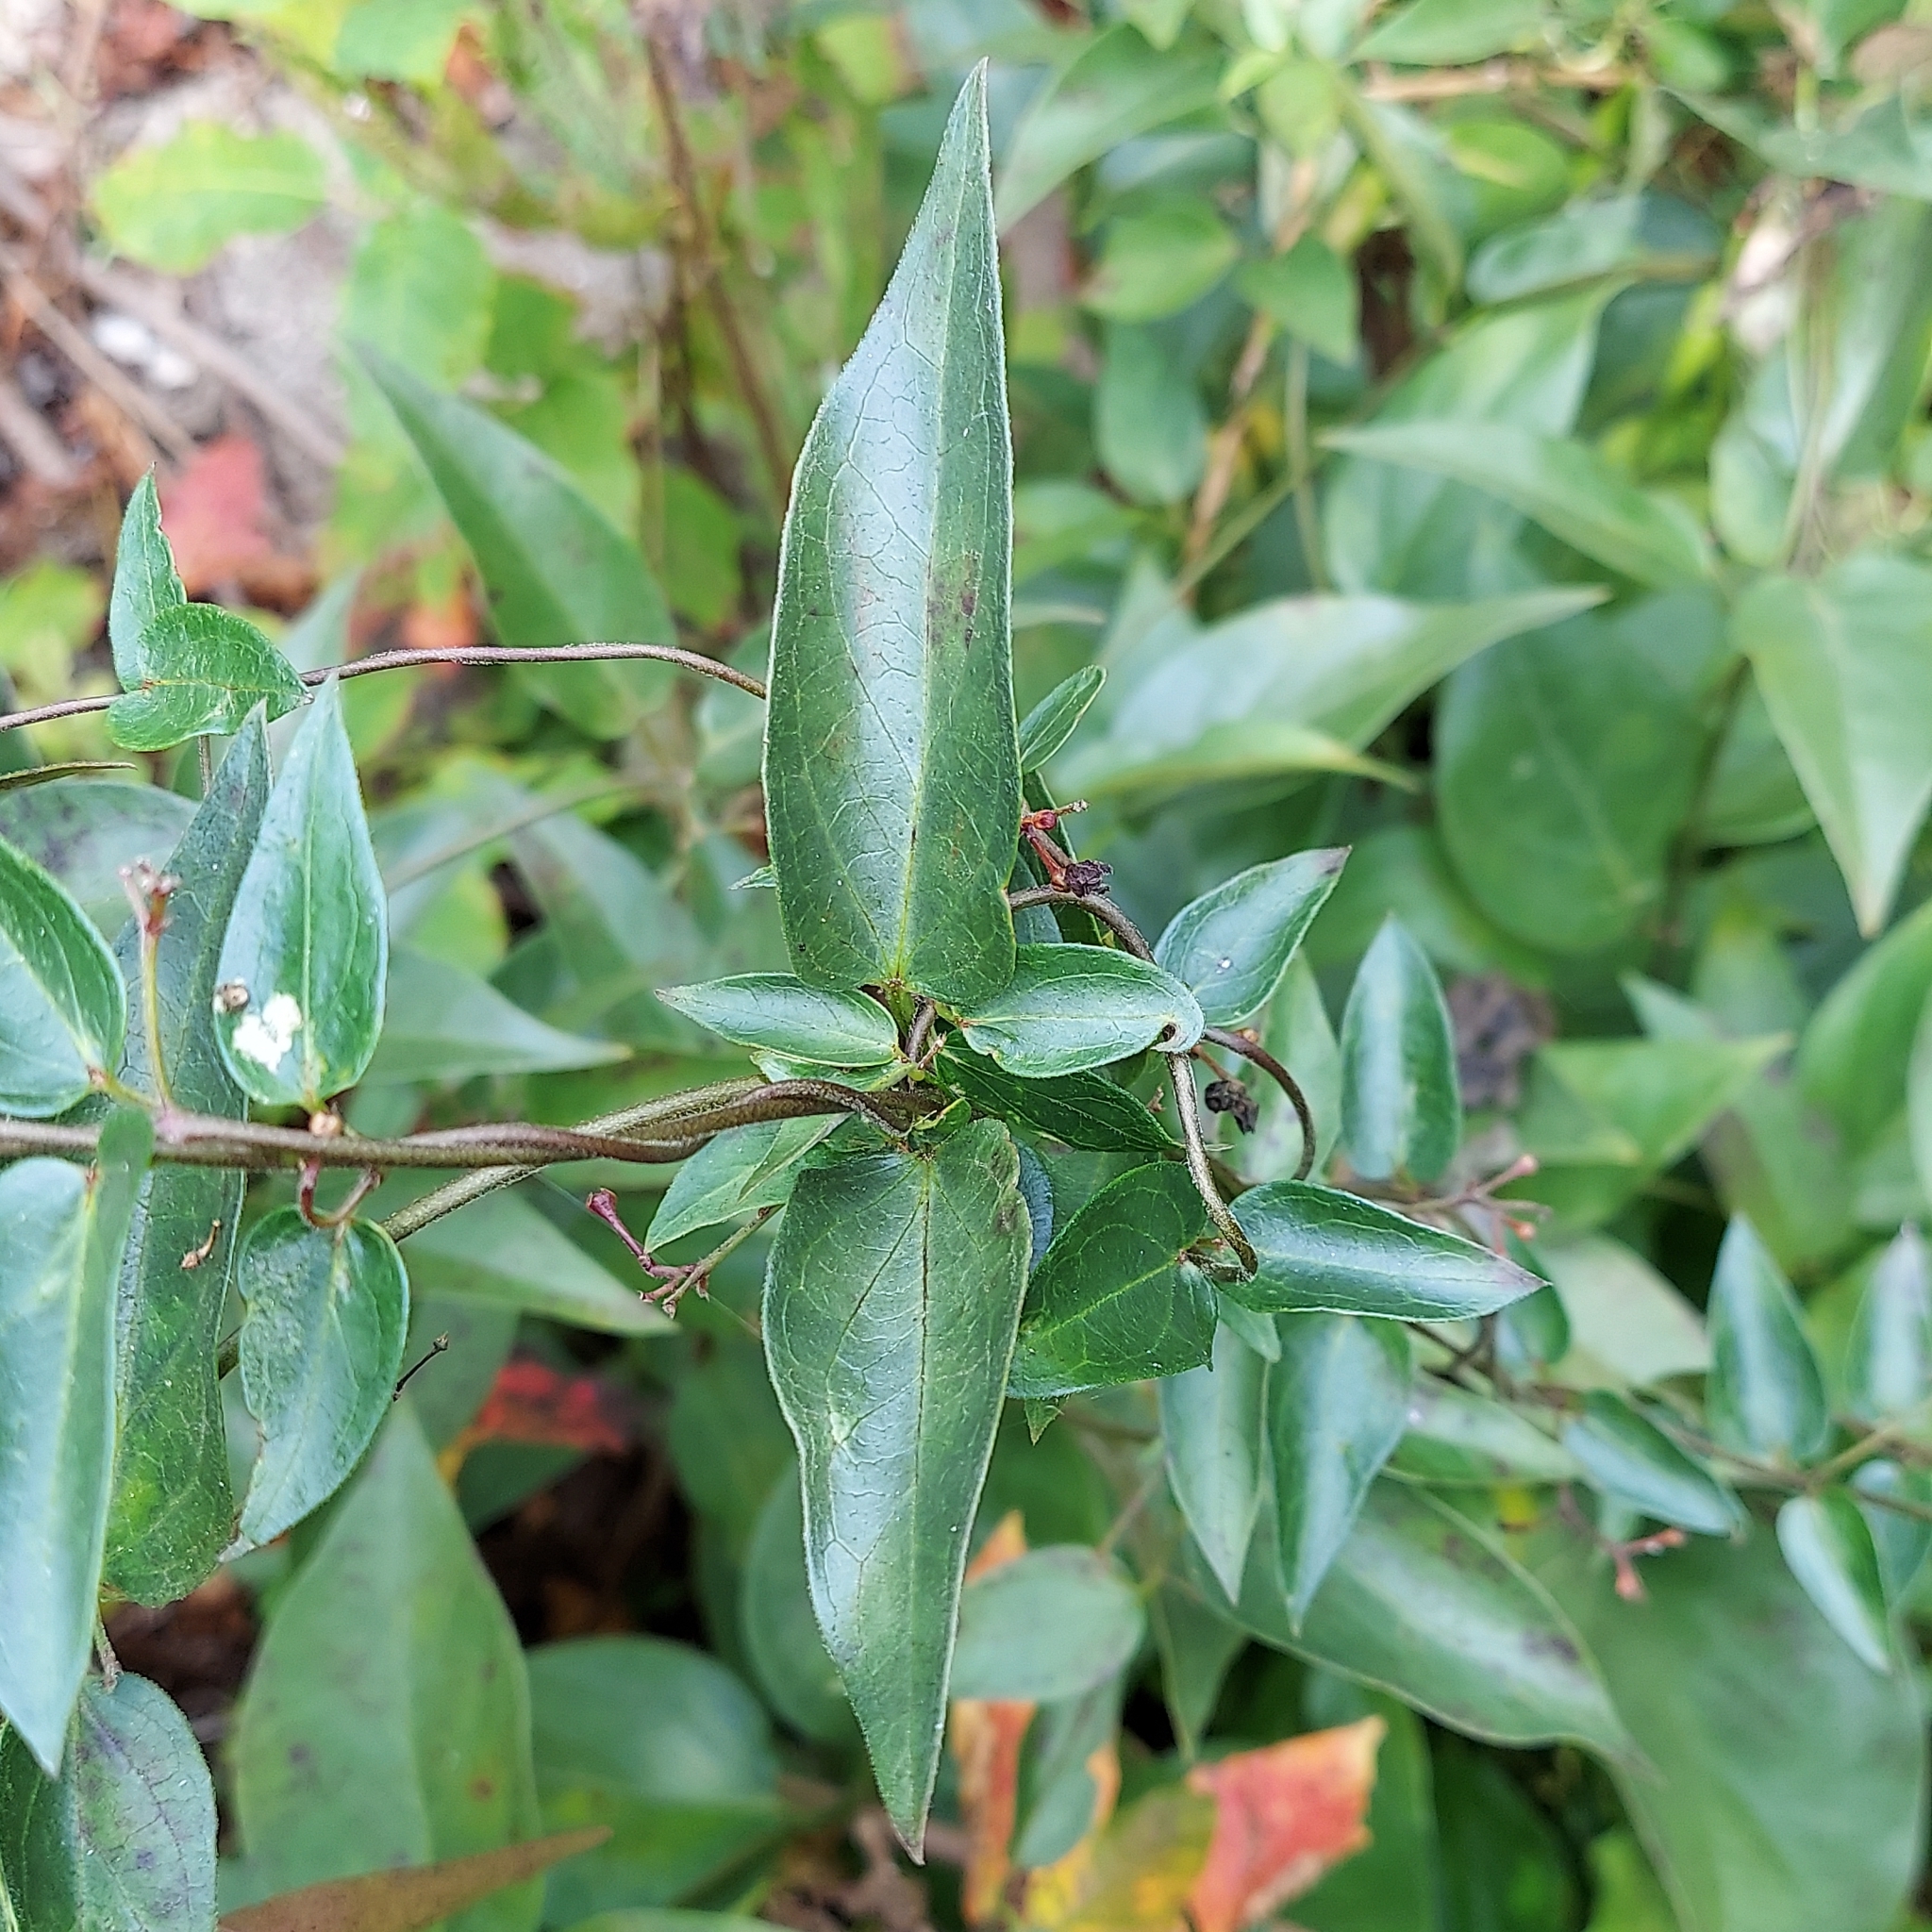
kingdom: Plantae
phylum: Tracheophyta
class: Magnoliopsida
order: Gentianales
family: Apocynaceae
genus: Vincetoxicum
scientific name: Vincetoxicum nigrum
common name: Black swallow-wort
